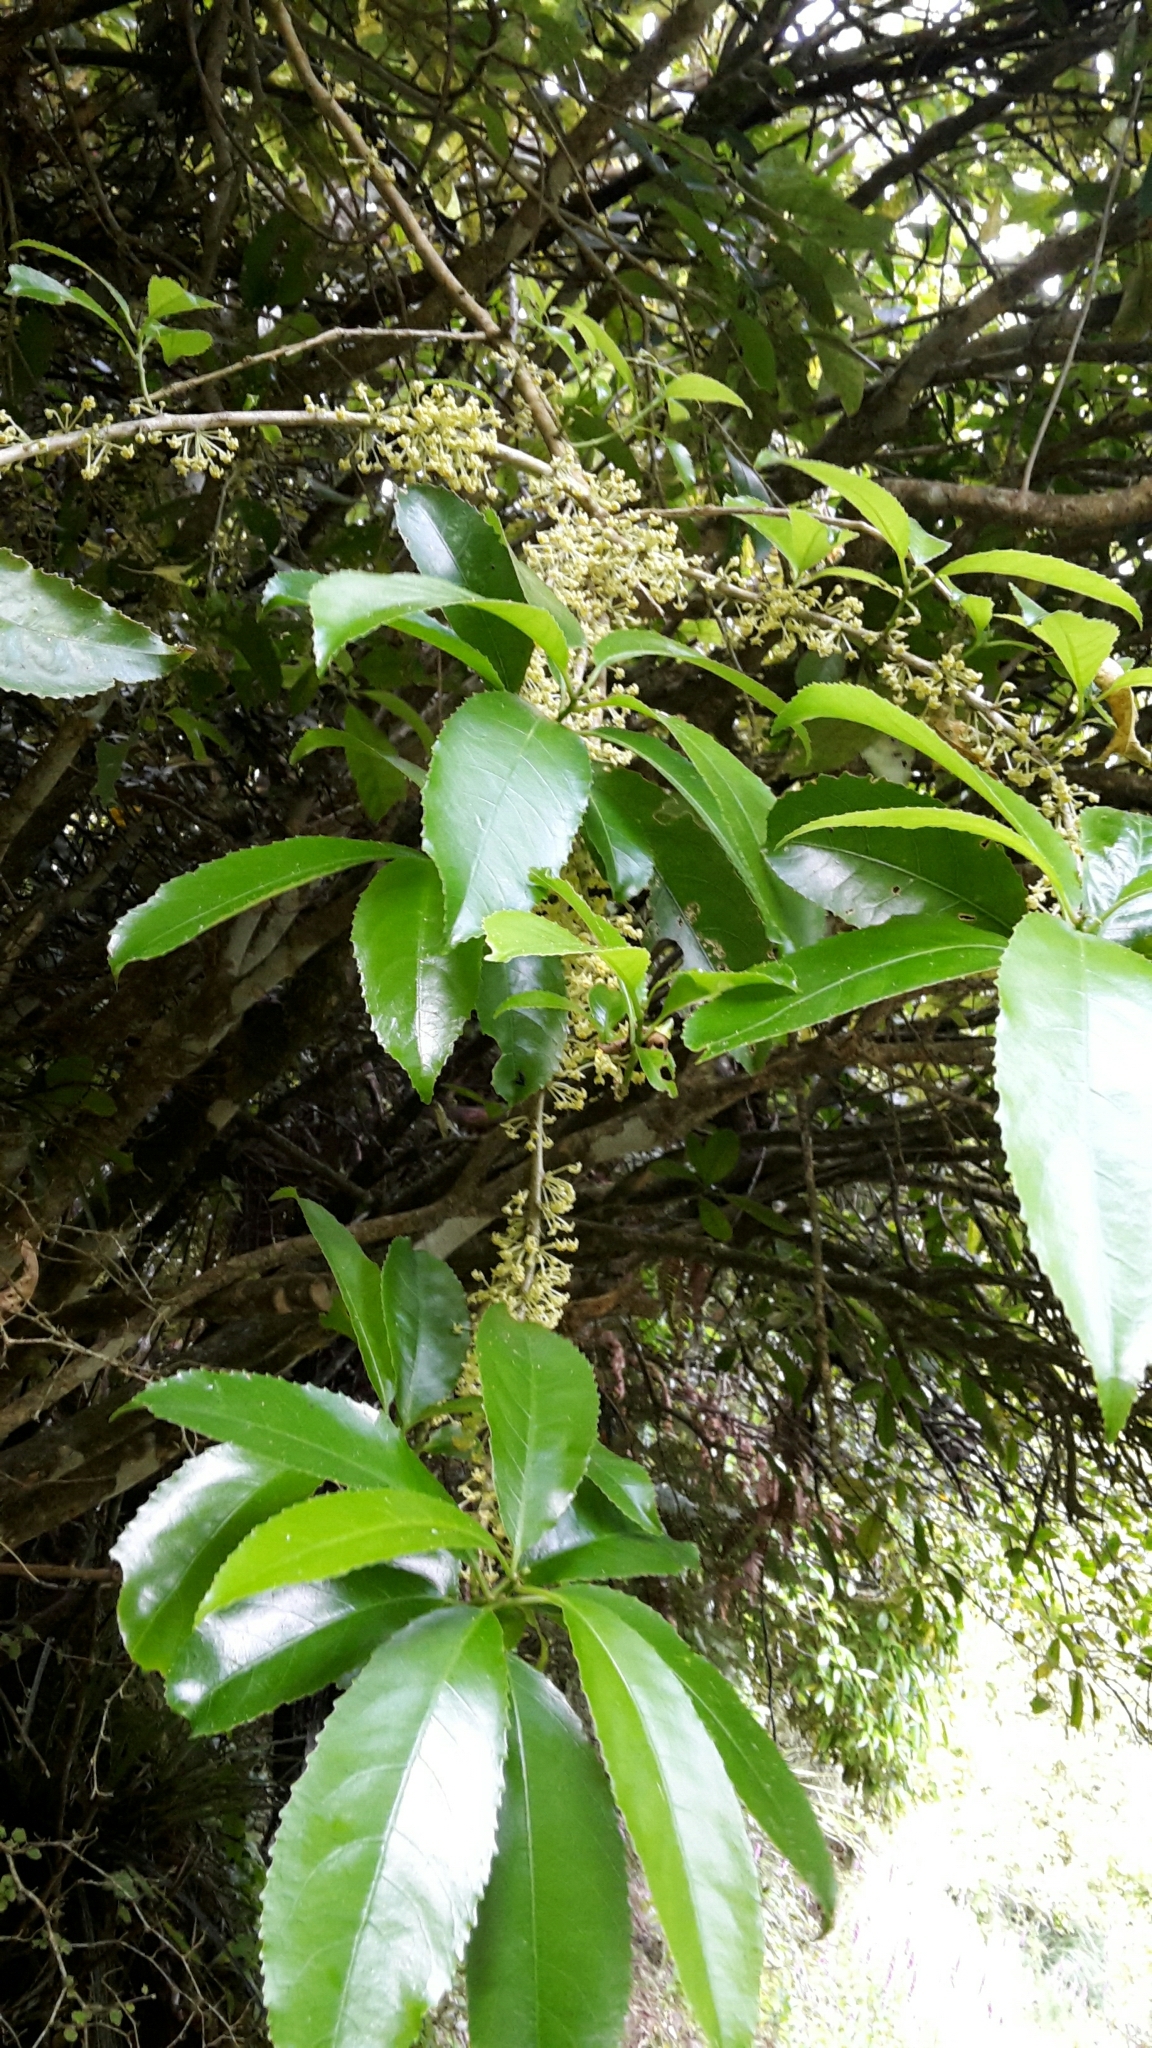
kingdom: Plantae
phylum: Tracheophyta
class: Magnoliopsida
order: Malpighiales
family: Violaceae
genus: Melicytus
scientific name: Melicytus ramiflorus
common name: Mahoe
